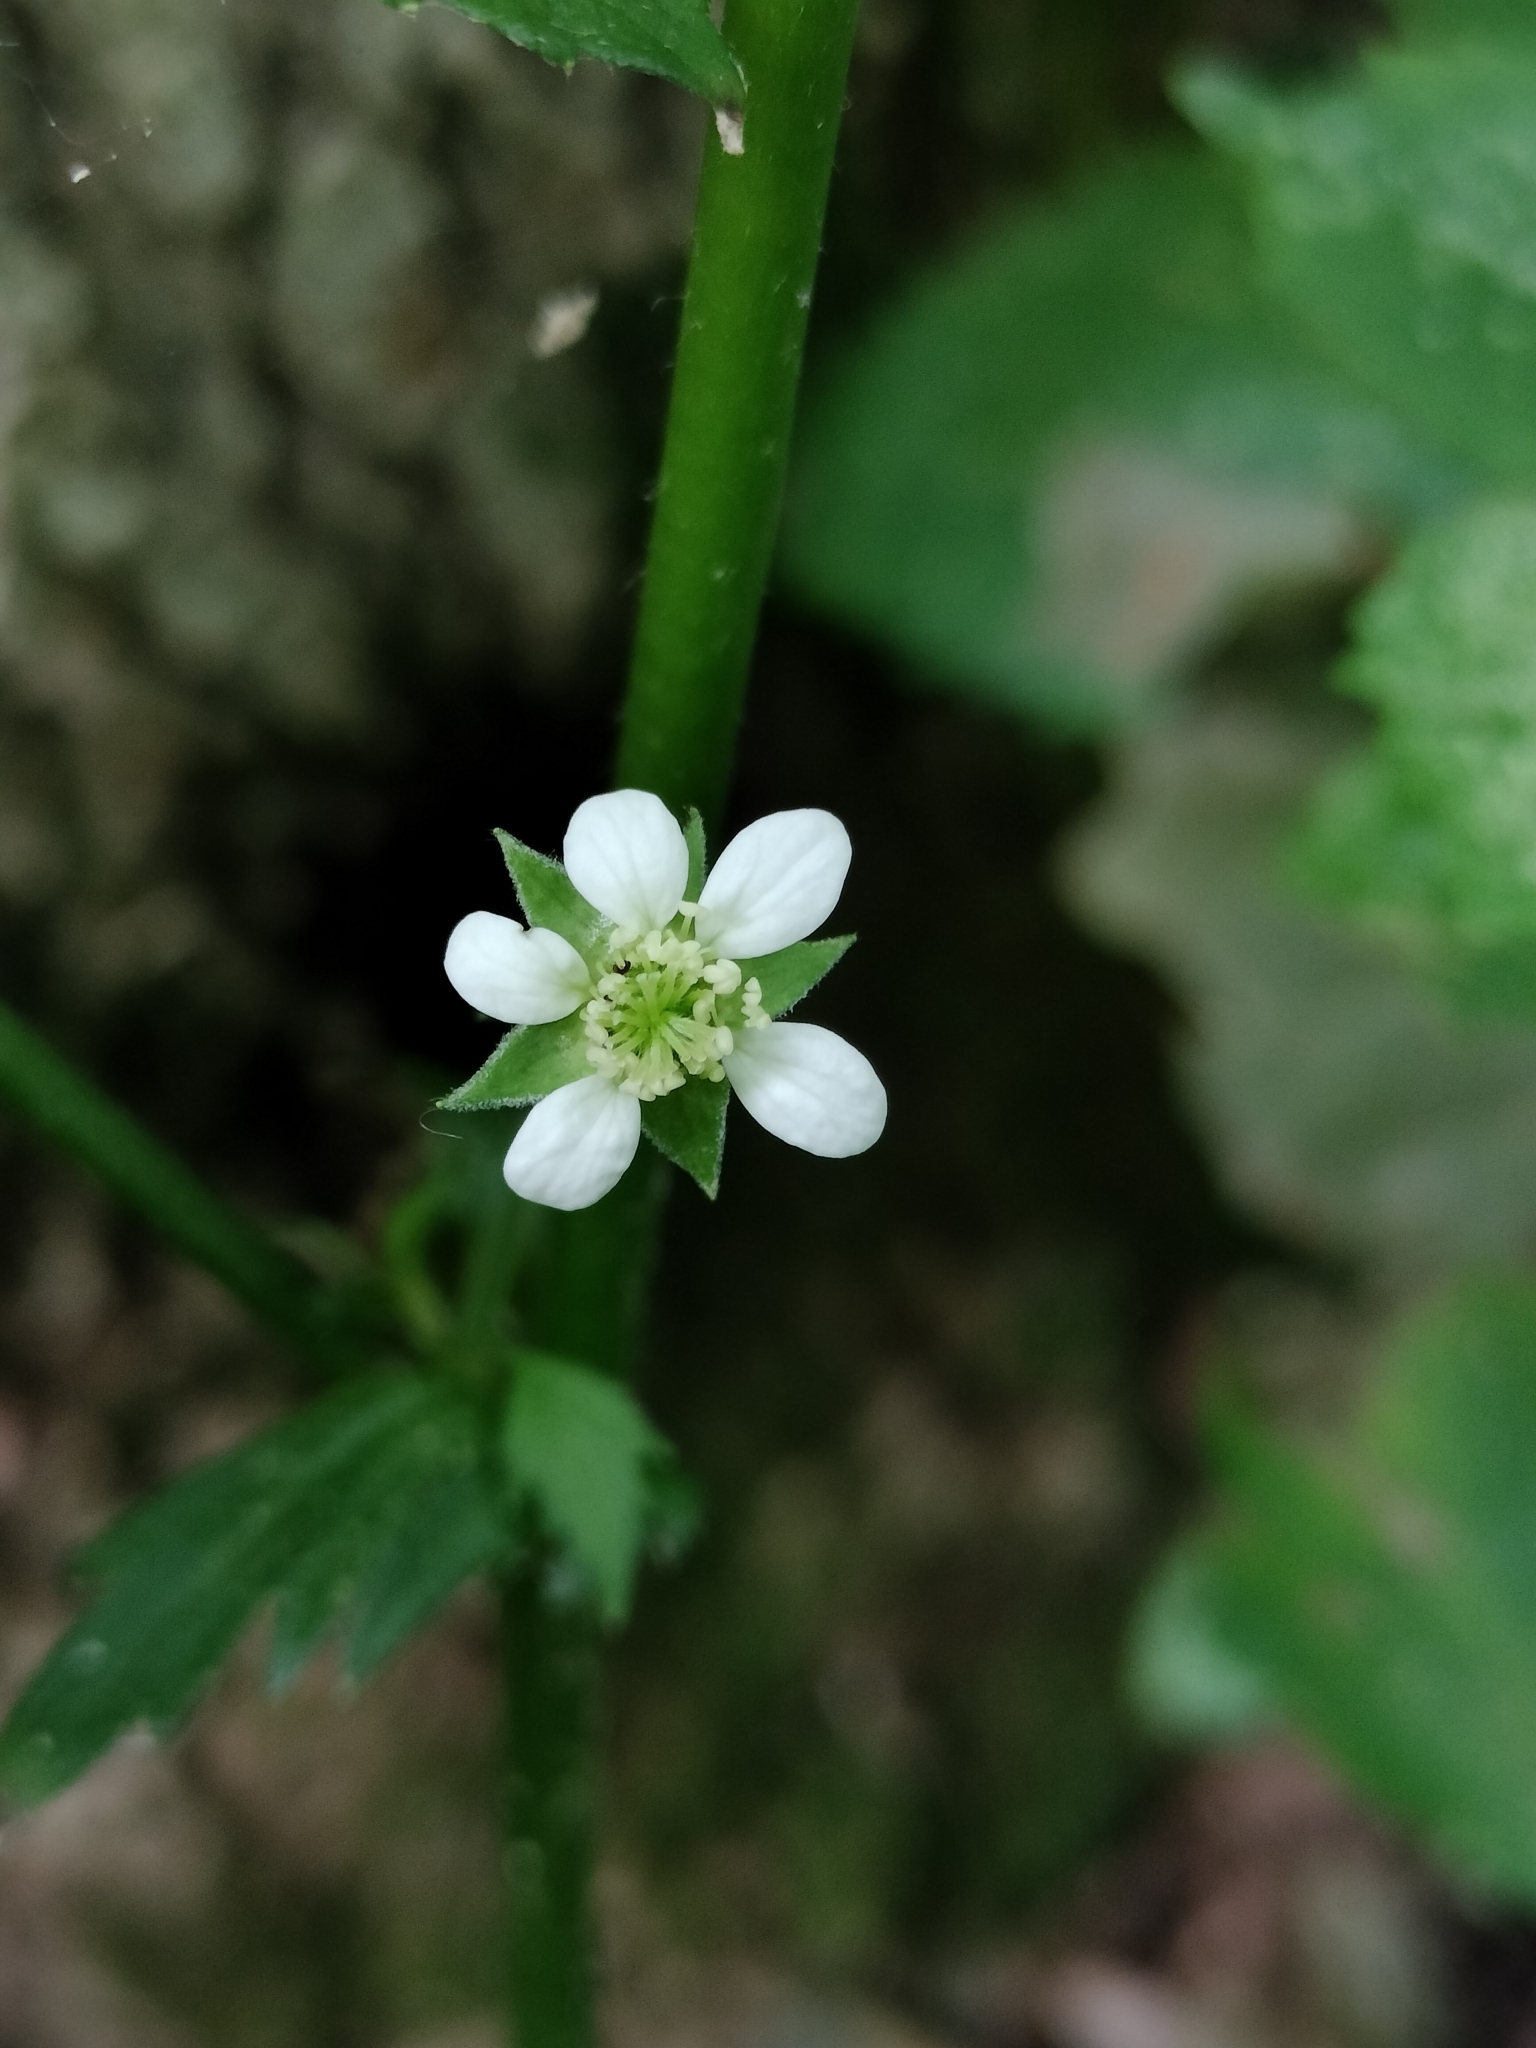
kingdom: Plantae
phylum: Tracheophyta
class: Magnoliopsida
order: Rosales
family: Rosaceae
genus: Geum
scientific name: Geum canadense
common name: White avens
